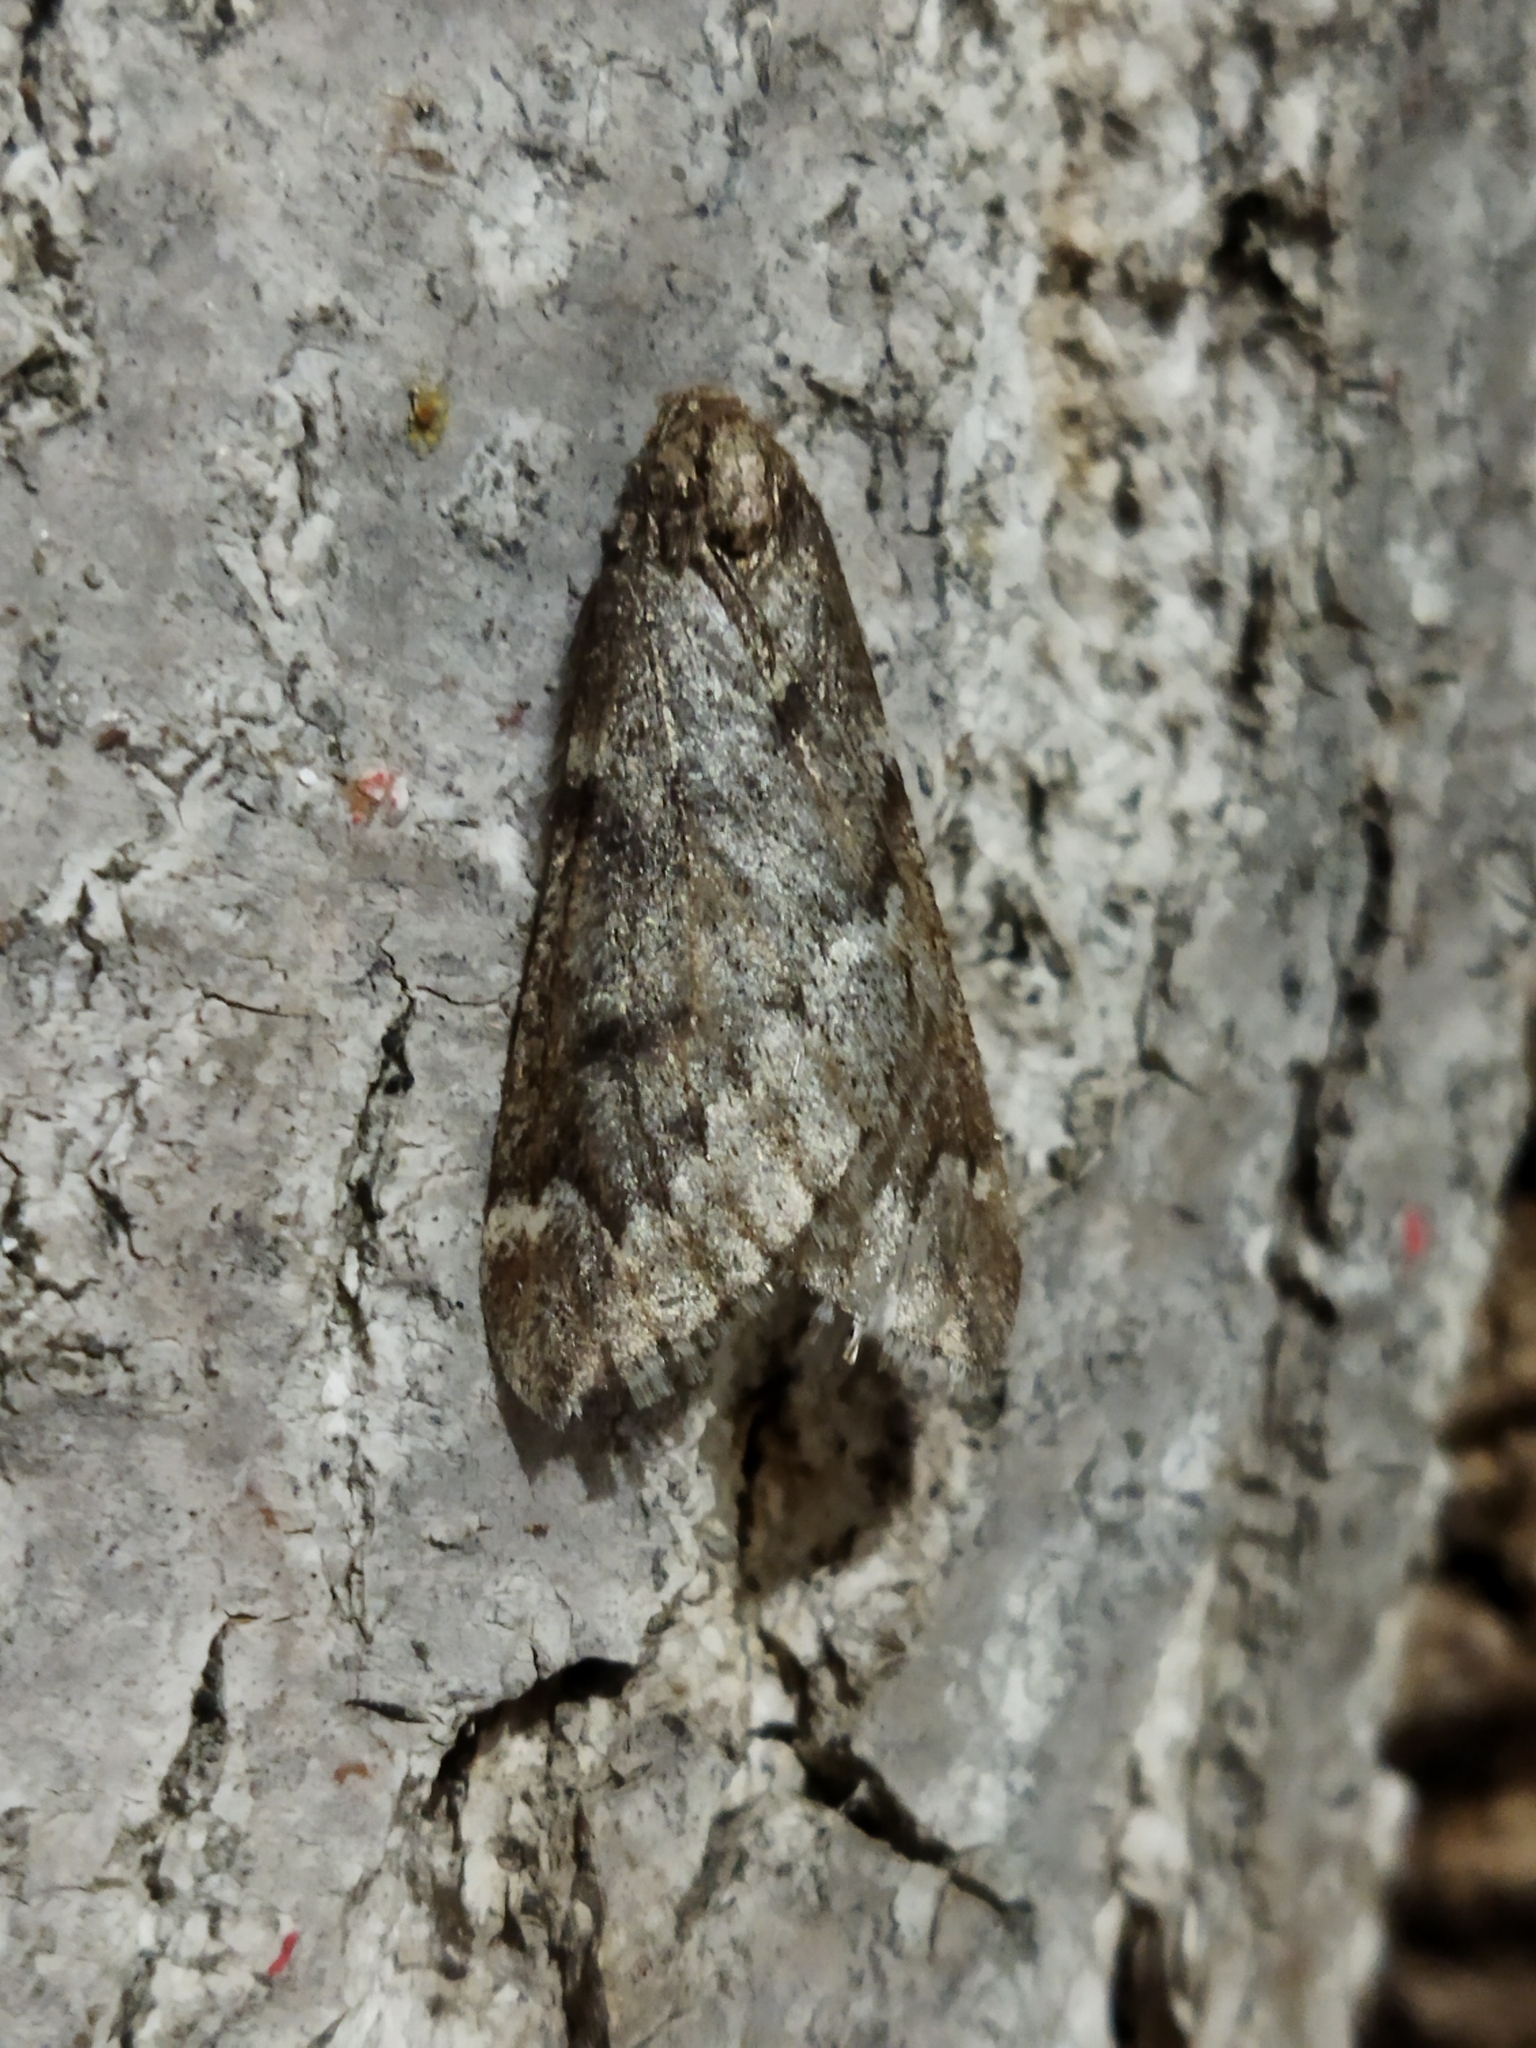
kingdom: Animalia
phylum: Arthropoda
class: Insecta
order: Lepidoptera
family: Geometridae
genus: Alsophila
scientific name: Alsophila aescularia
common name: March moth
